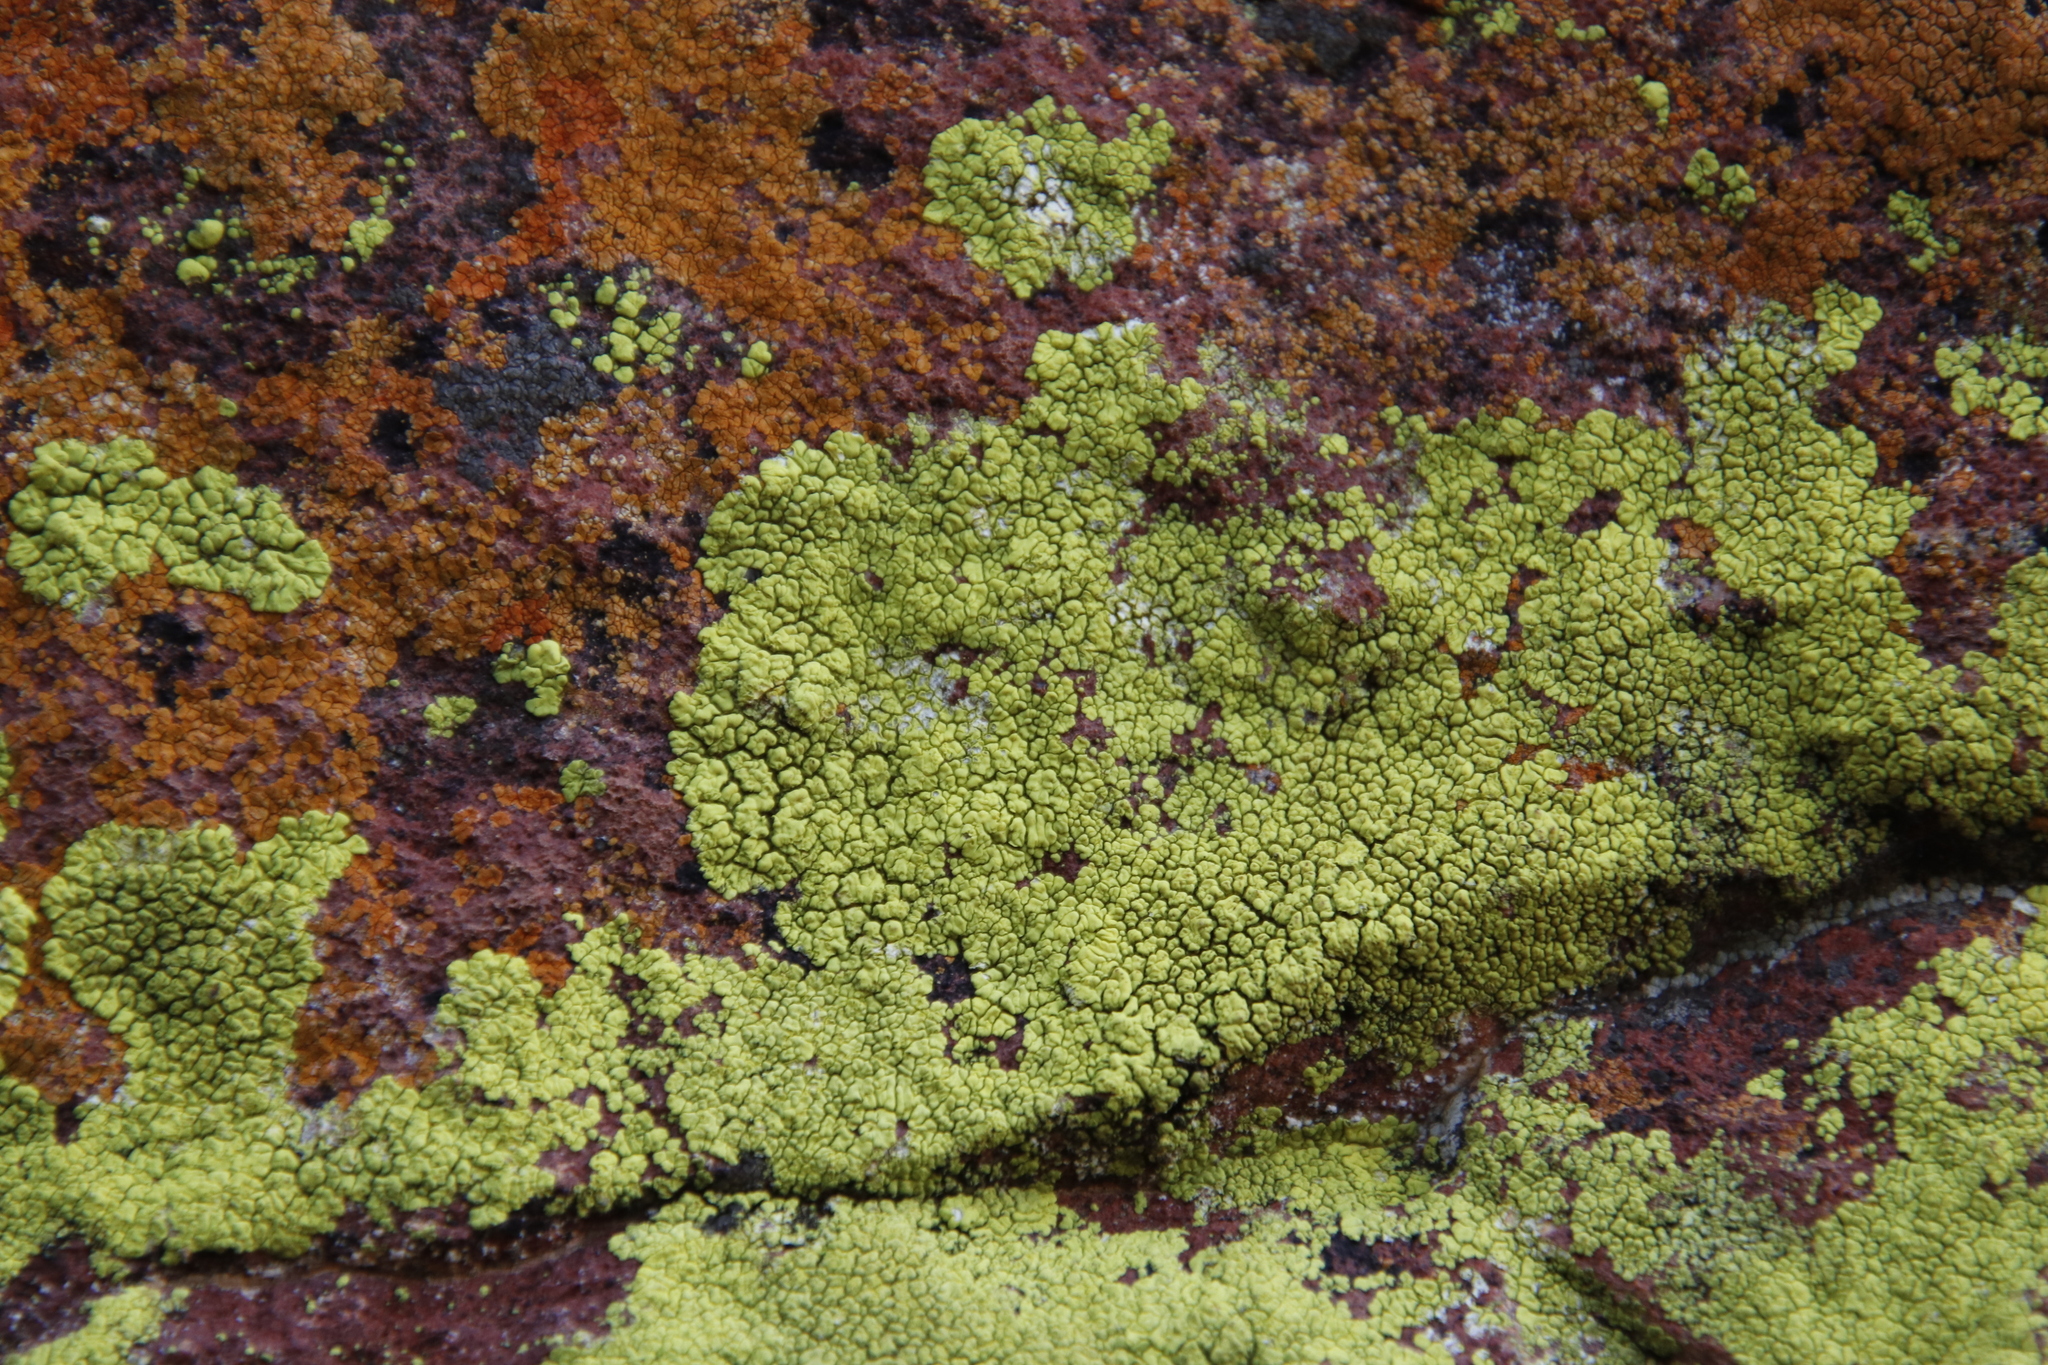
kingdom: Fungi
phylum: Ascomycota
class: Lecanoromycetes
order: Acarosporales
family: Acarosporaceae
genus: Acarospora
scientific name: Acarospora
